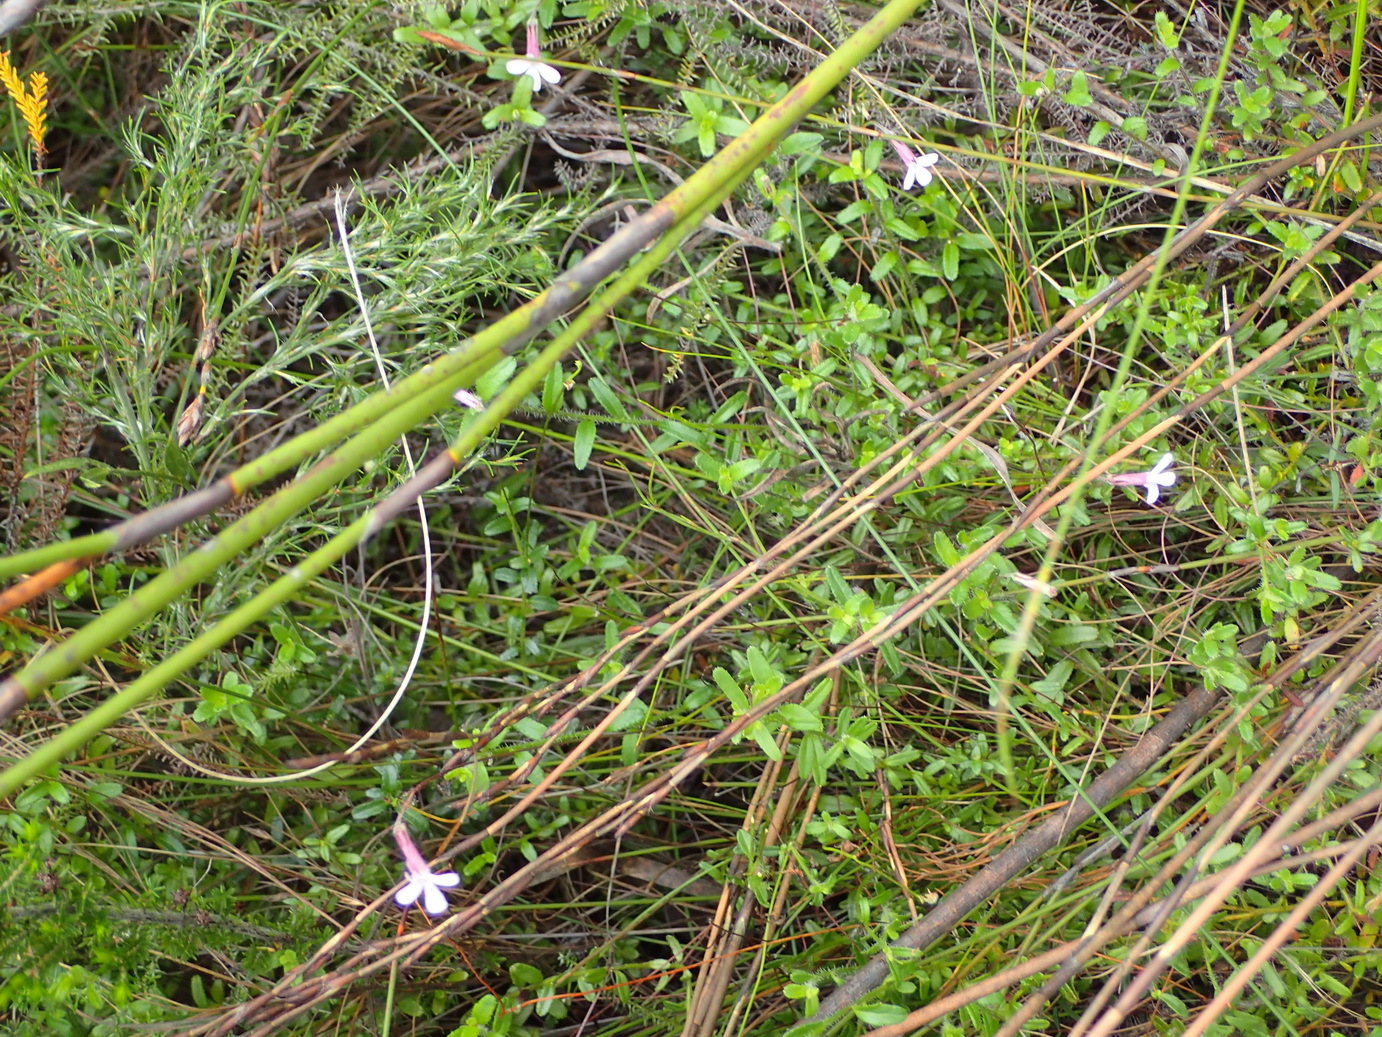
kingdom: Plantae
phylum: Tracheophyta
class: Magnoliopsida
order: Asterales
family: Campanulaceae
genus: Lobelia
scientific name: Lobelia neglecta
